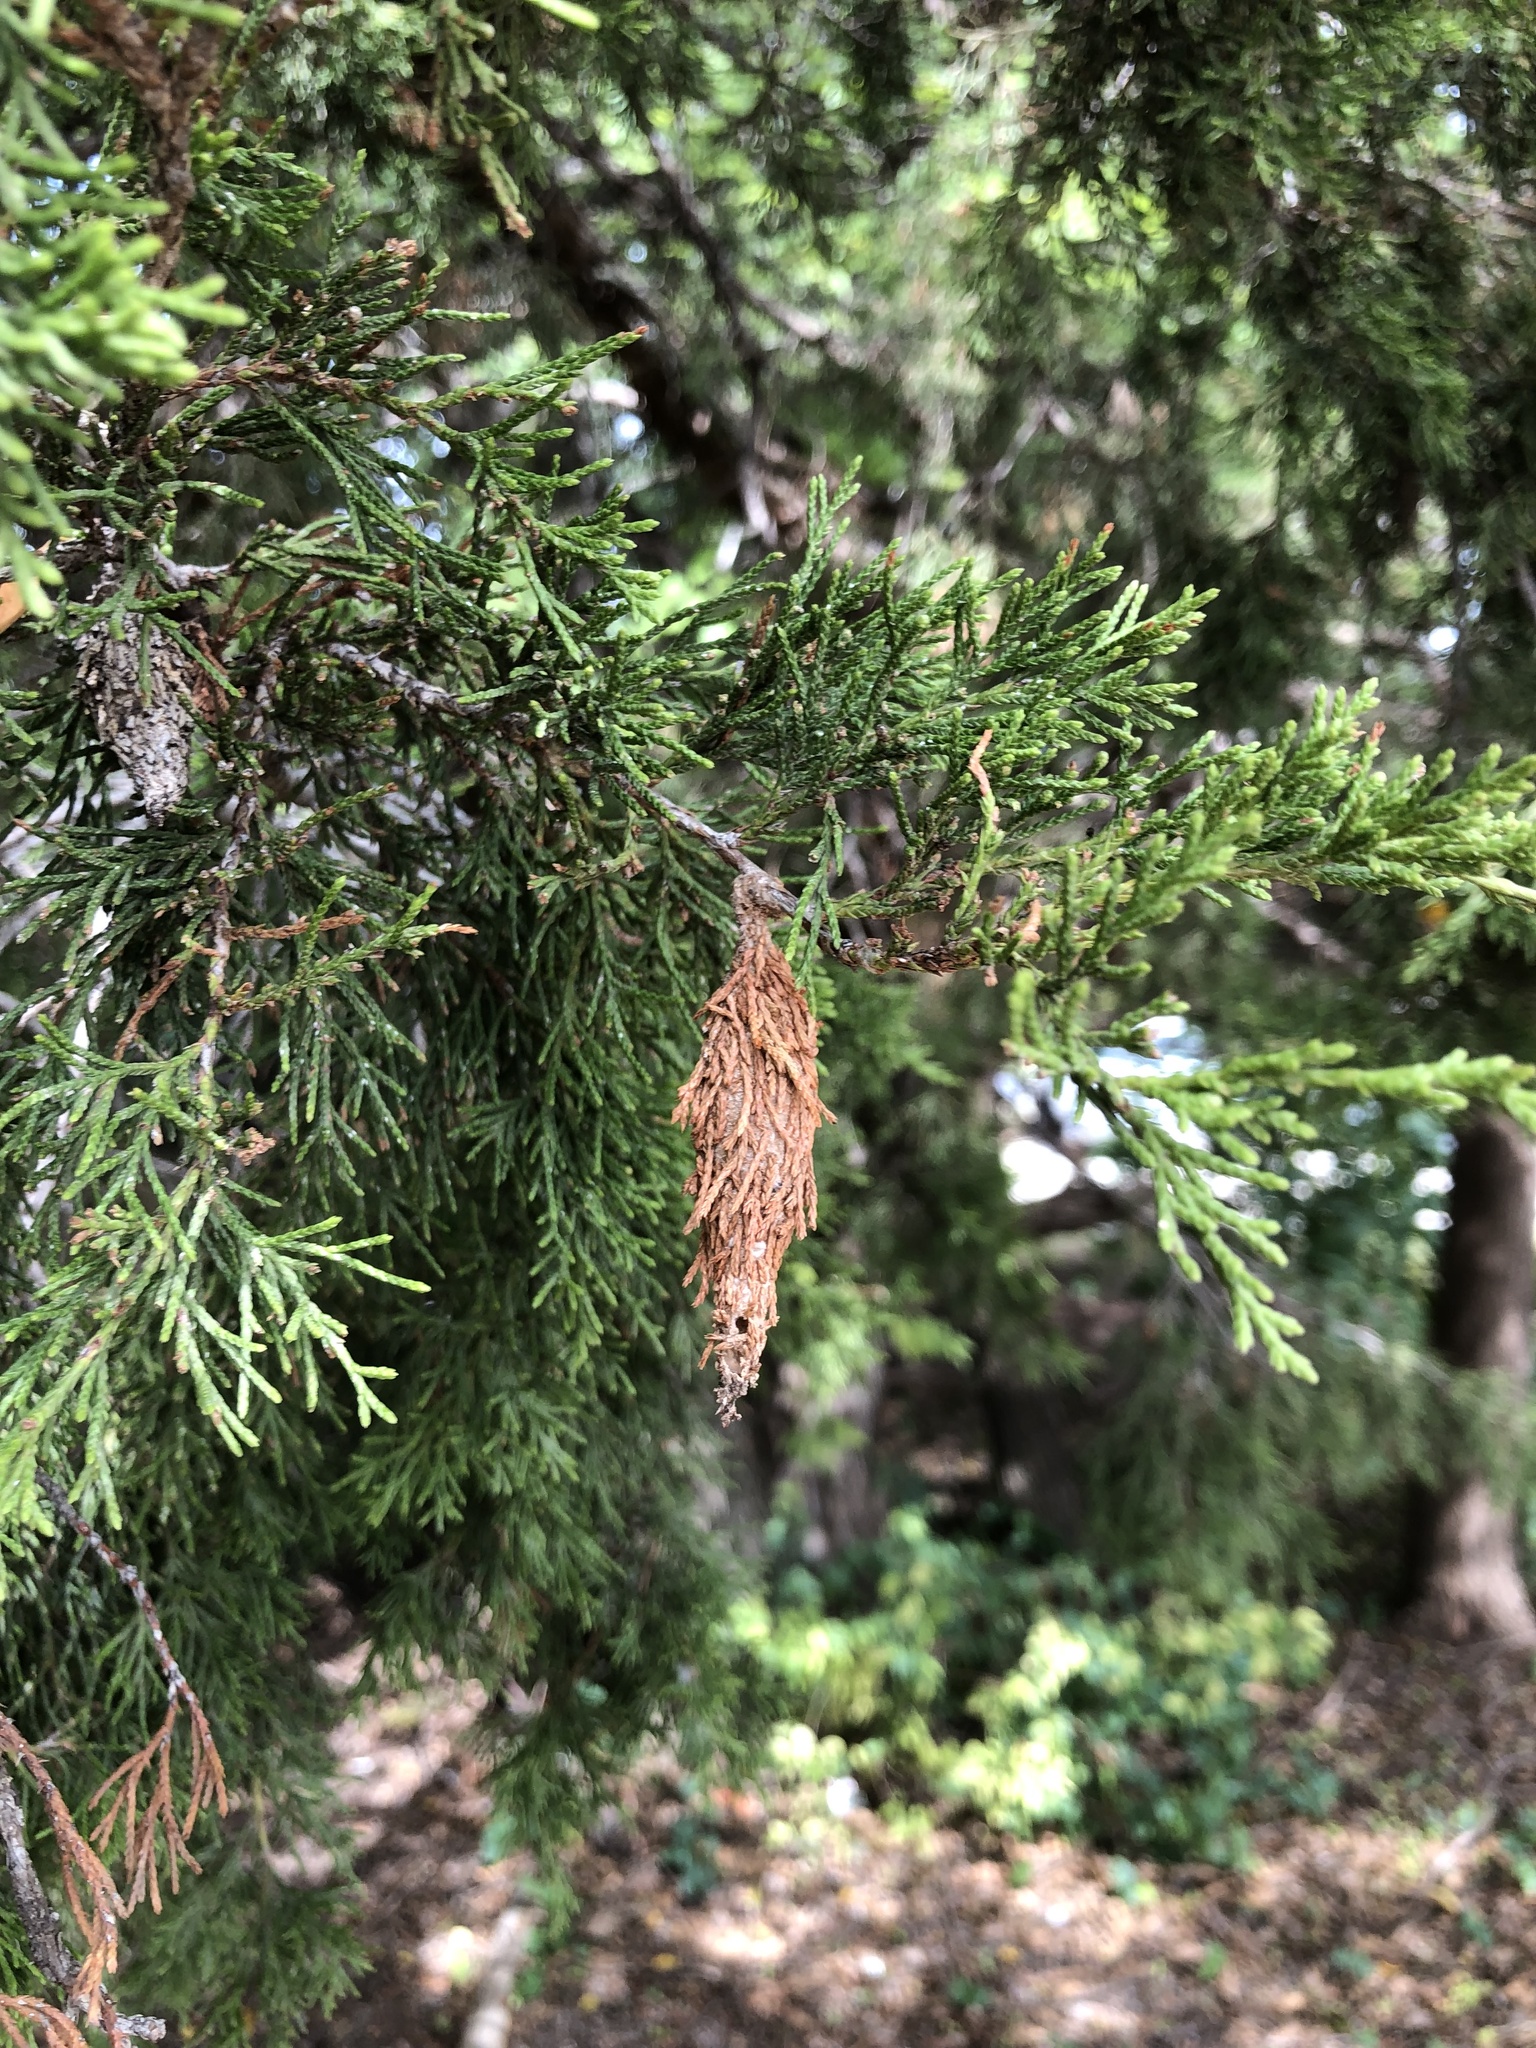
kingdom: Animalia
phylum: Arthropoda
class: Insecta
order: Lepidoptera
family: Psychidae
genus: Thyridopteryx
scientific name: Thyridopteryx ephemeraeformis
